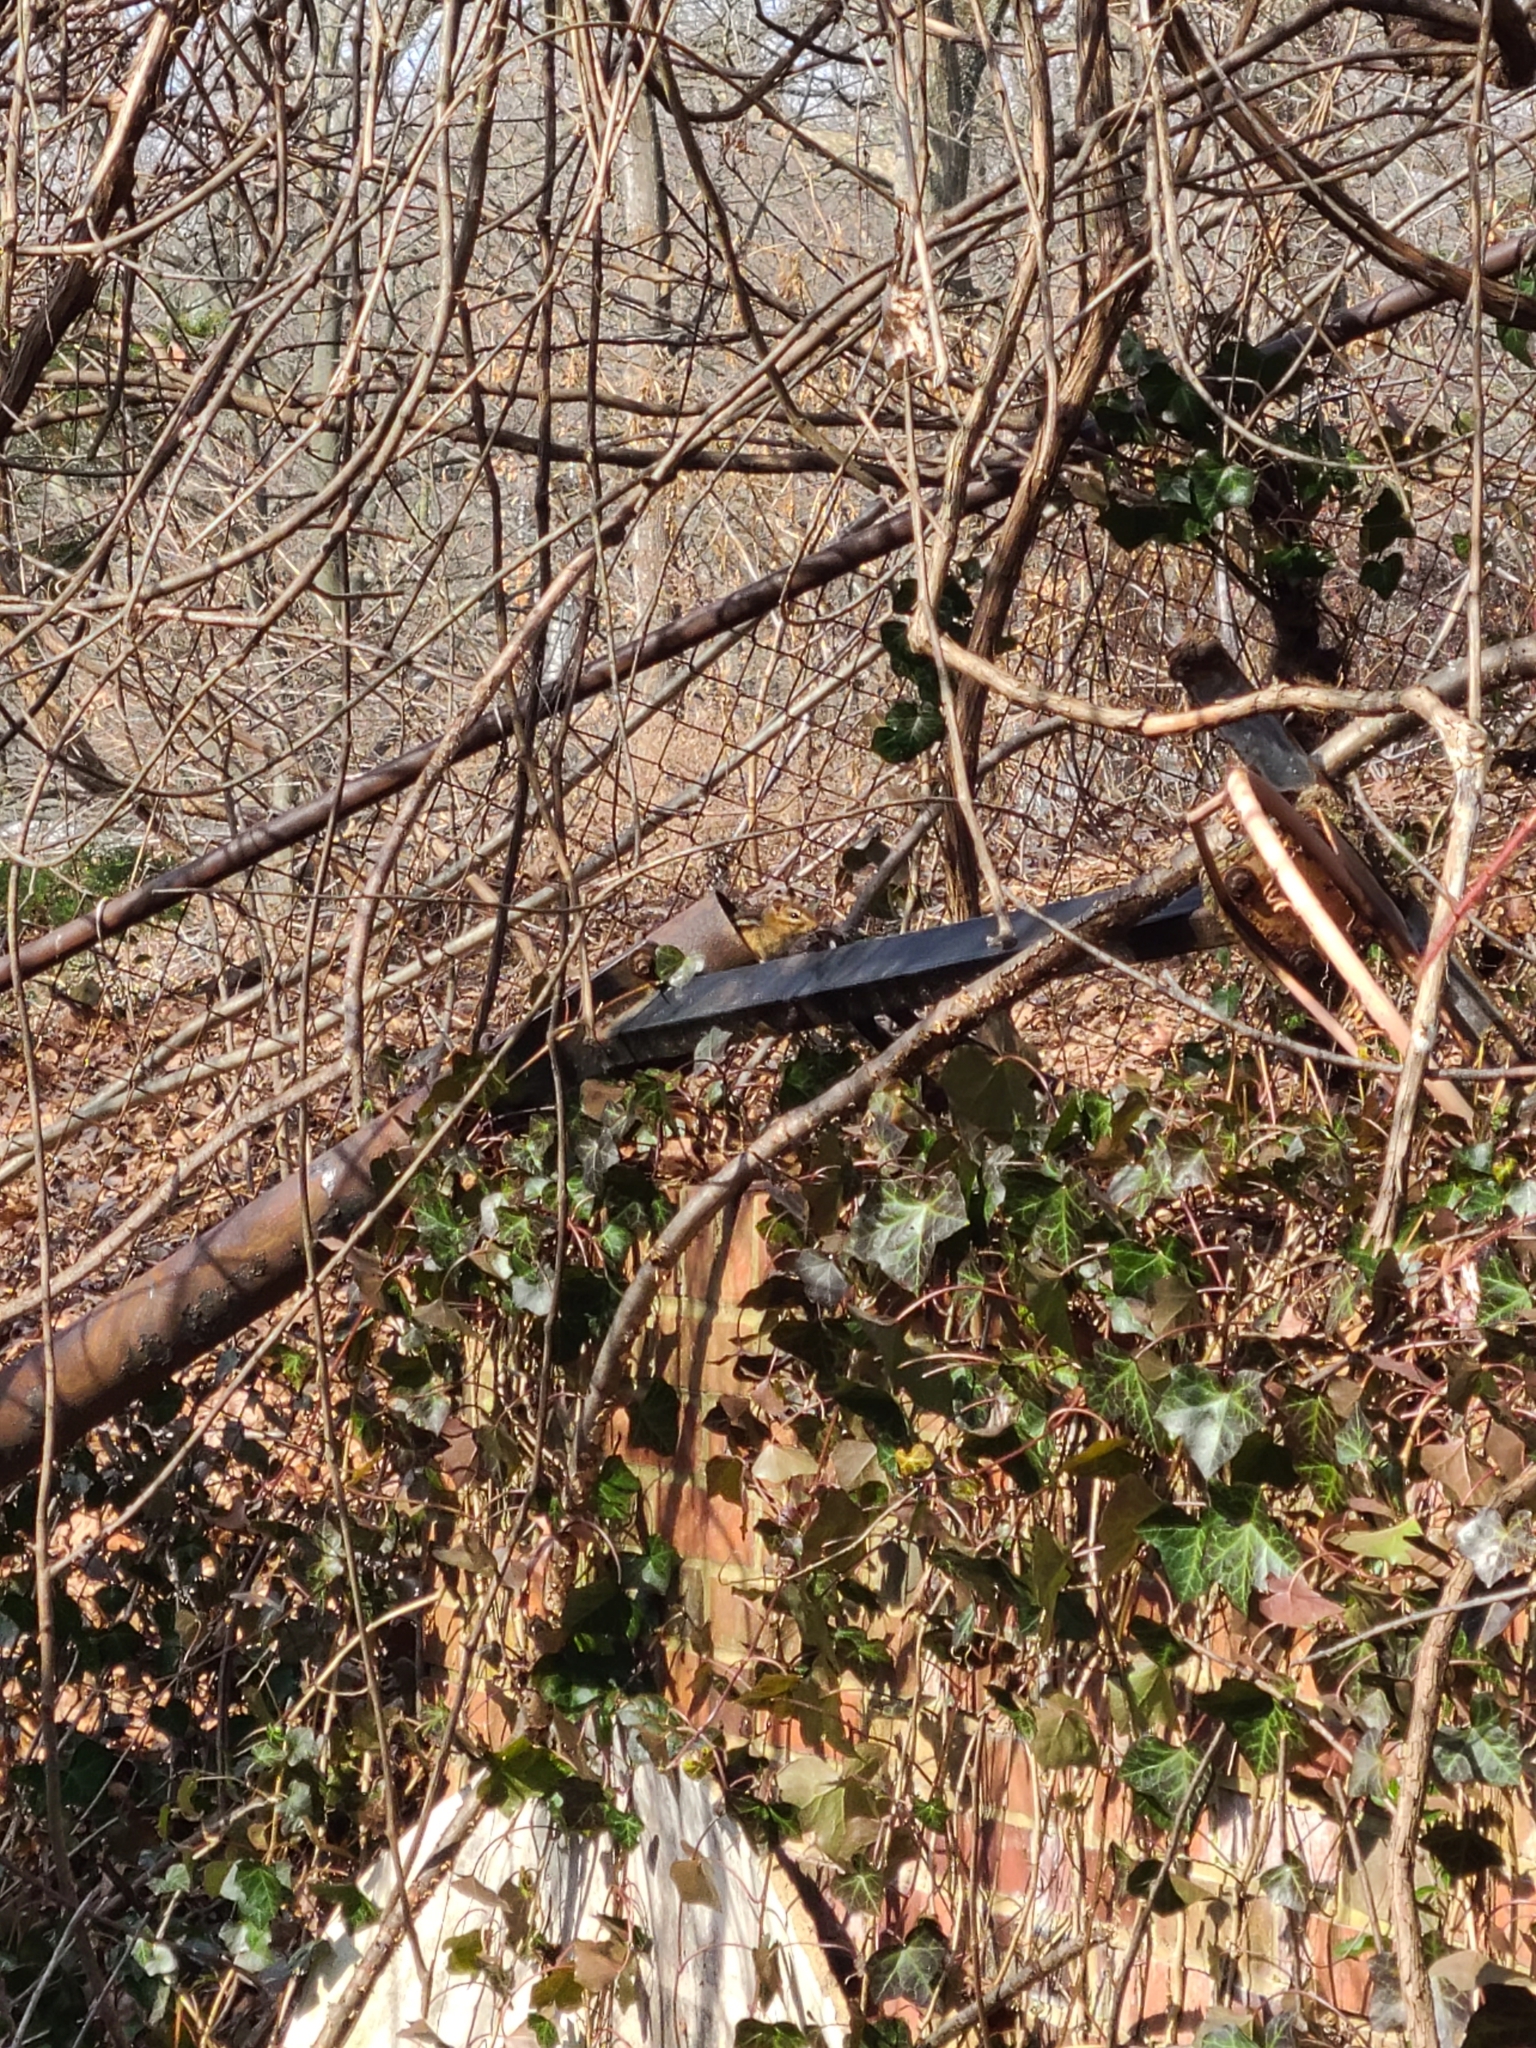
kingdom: Animalia
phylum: Chordata
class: Mammalia
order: Rodentia
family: Sciuridae
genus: Tamias
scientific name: Tamias striatus
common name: Eastern chipmunk
